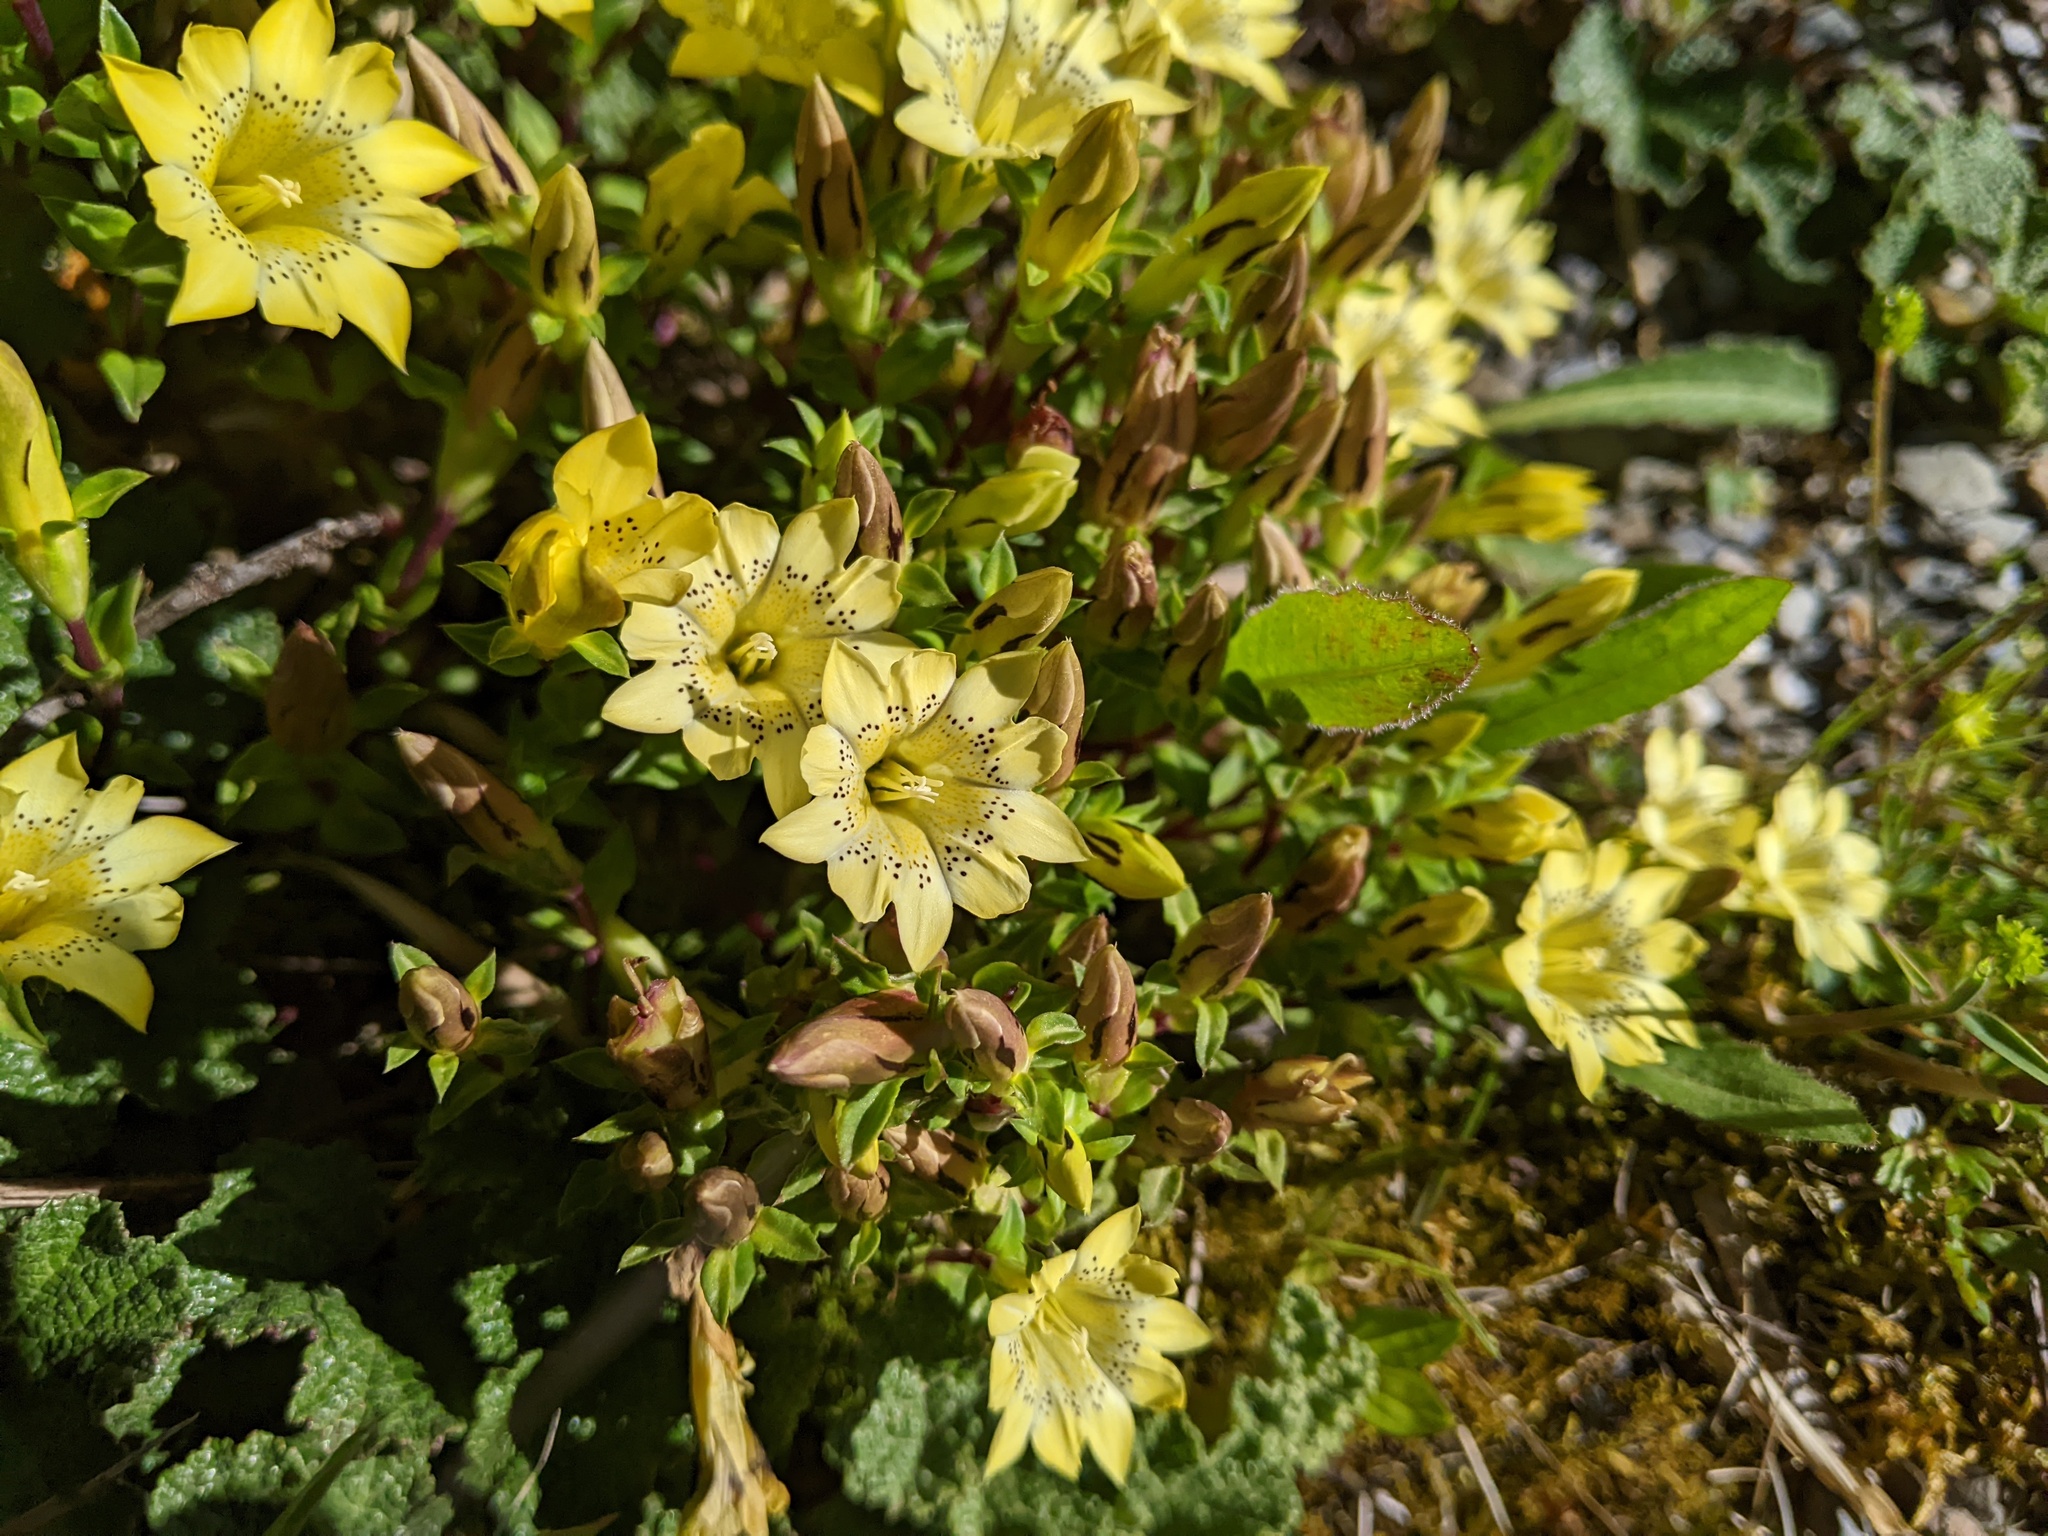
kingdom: Plantae
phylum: Tracheophyta
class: Magnoliopsida
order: Gentianales
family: Gentianaceae
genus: Gentiana
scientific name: Gentiana scabrida
